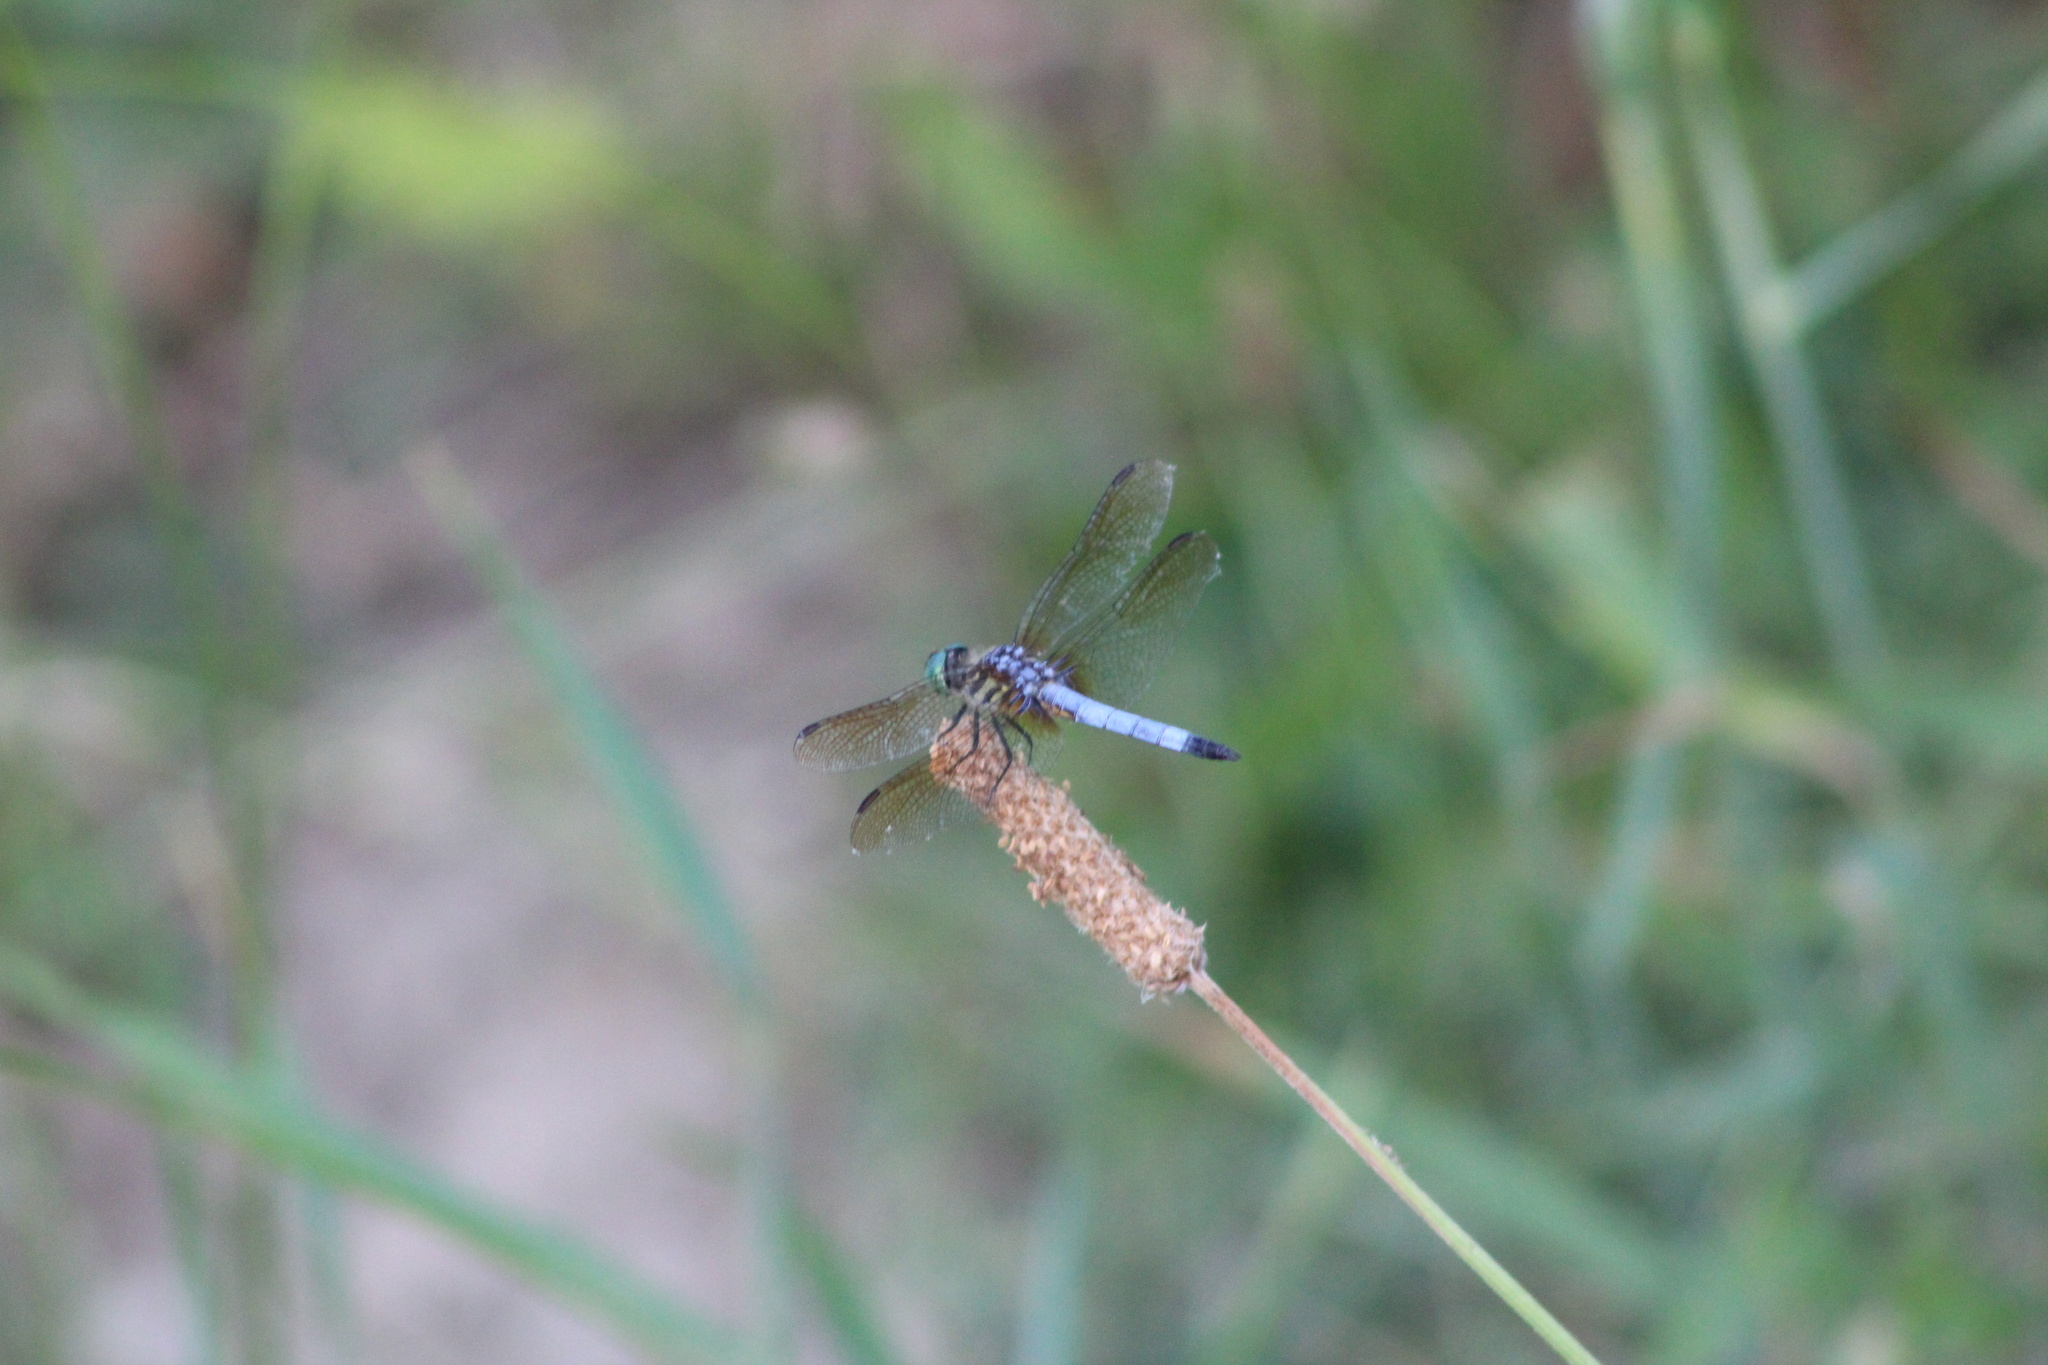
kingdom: Animalia
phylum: Arthropoda
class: Insecta
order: Odonata
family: Libellulidae
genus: Pachydiplax
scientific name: Pachydiplax longipennis
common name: Blue dasher
